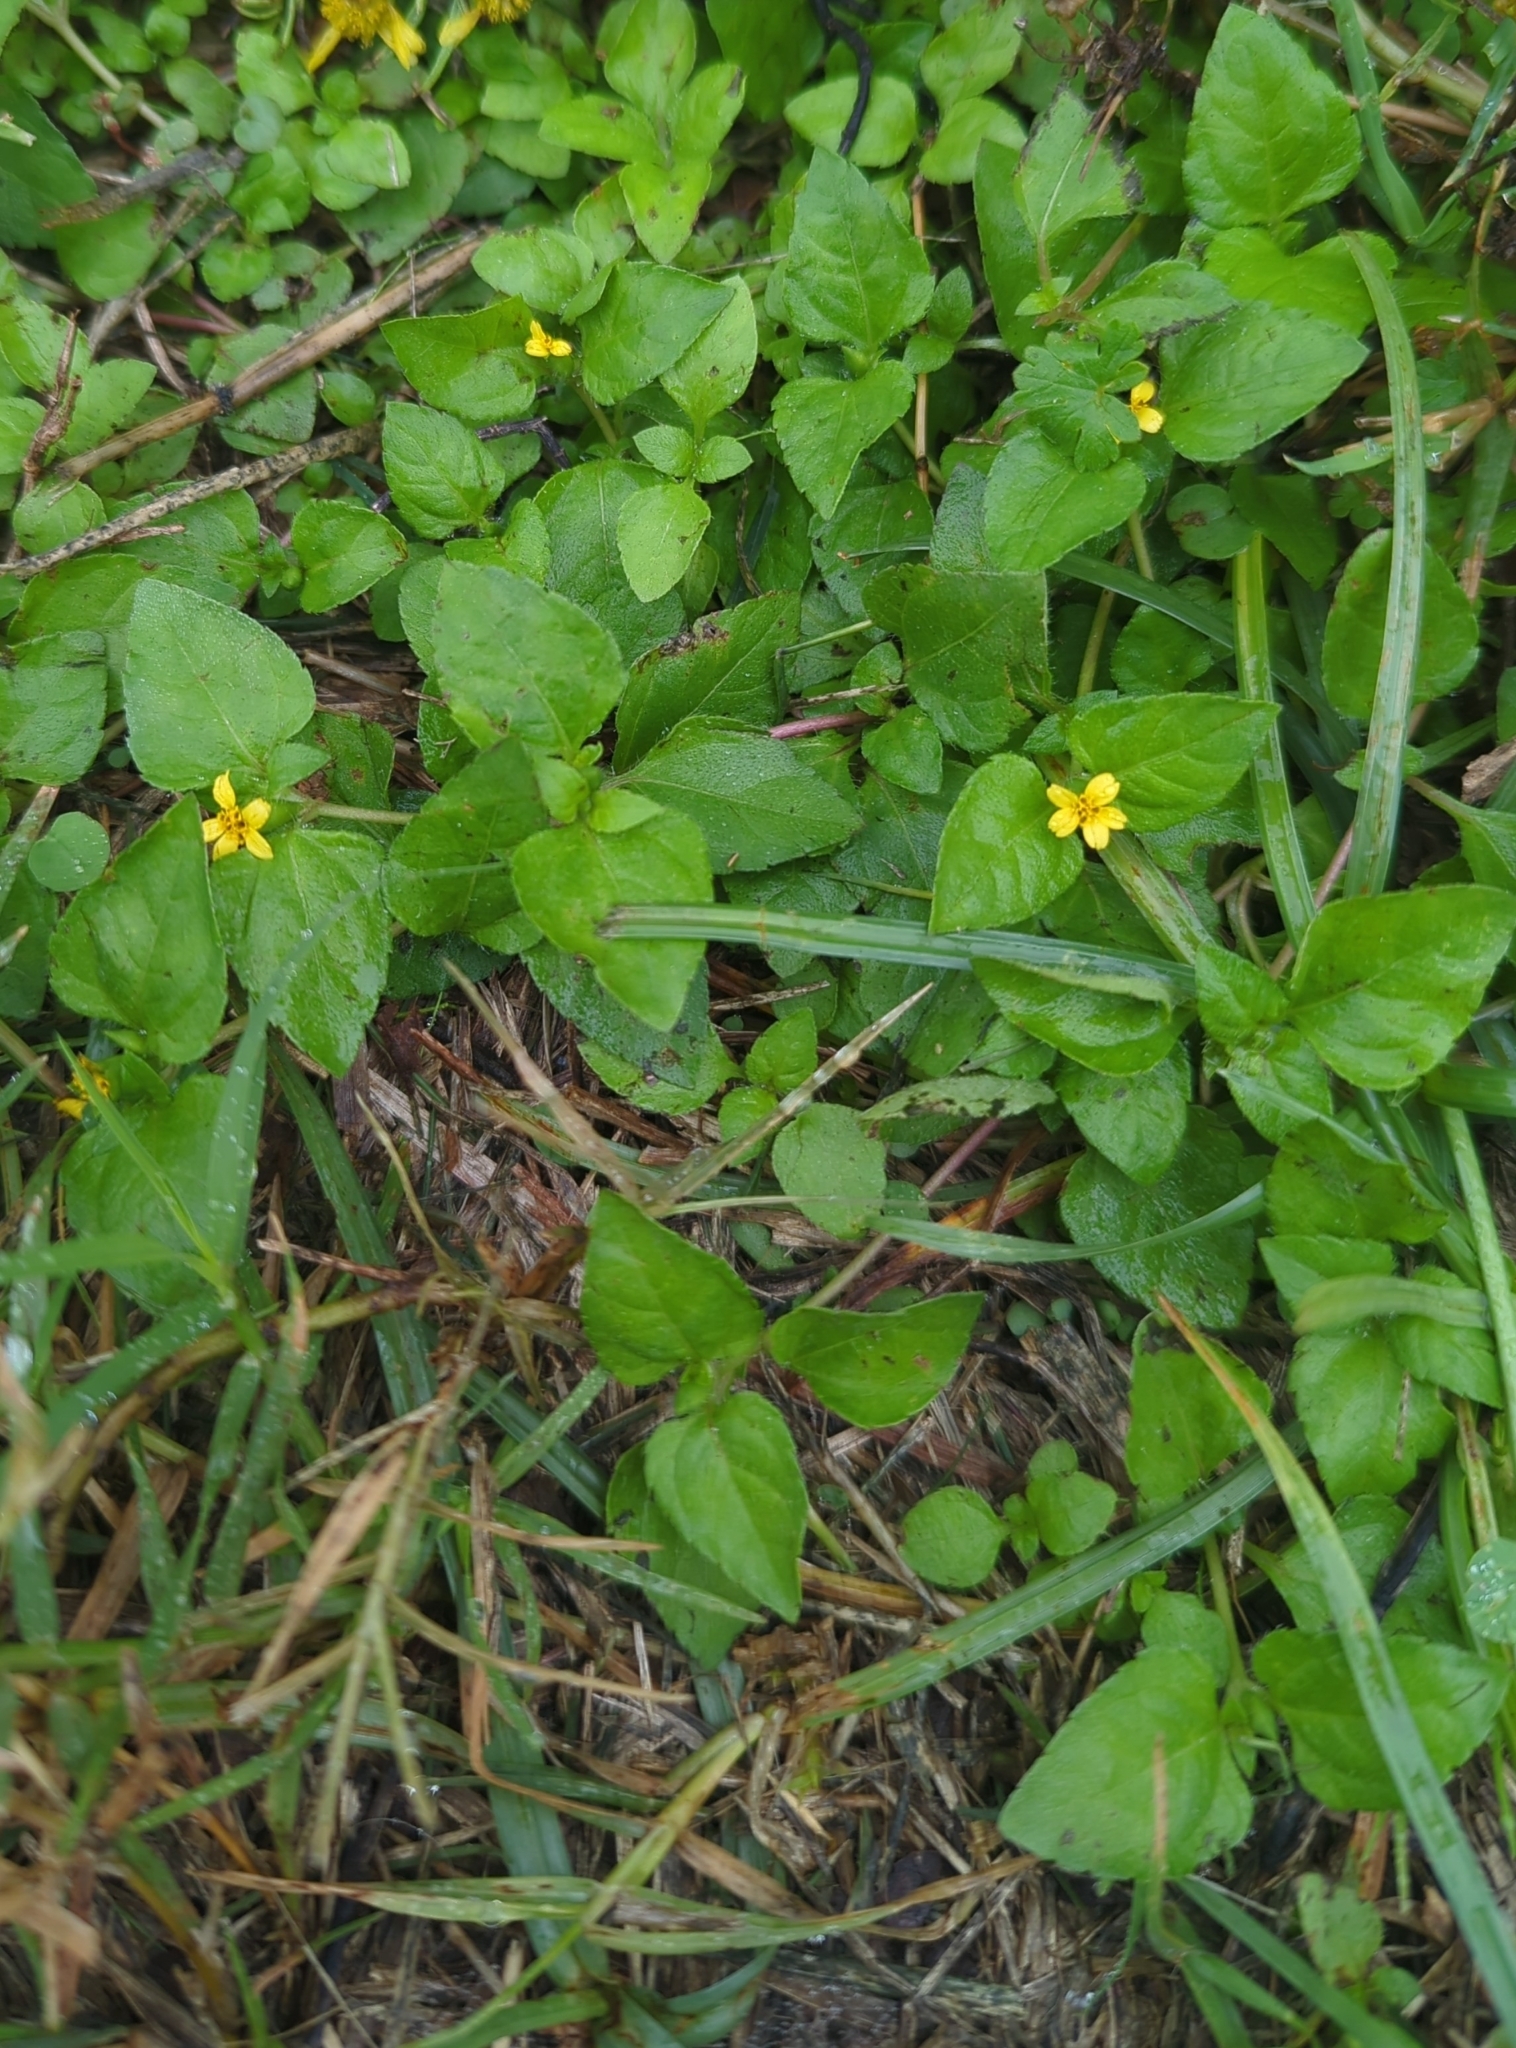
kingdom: Plantae
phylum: Tracheophyta
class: Magnoliopsida
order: Asterales
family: Asteraceae
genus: Calyptocarpus
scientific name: Calyptocarpus vialis
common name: Straggler daisy
